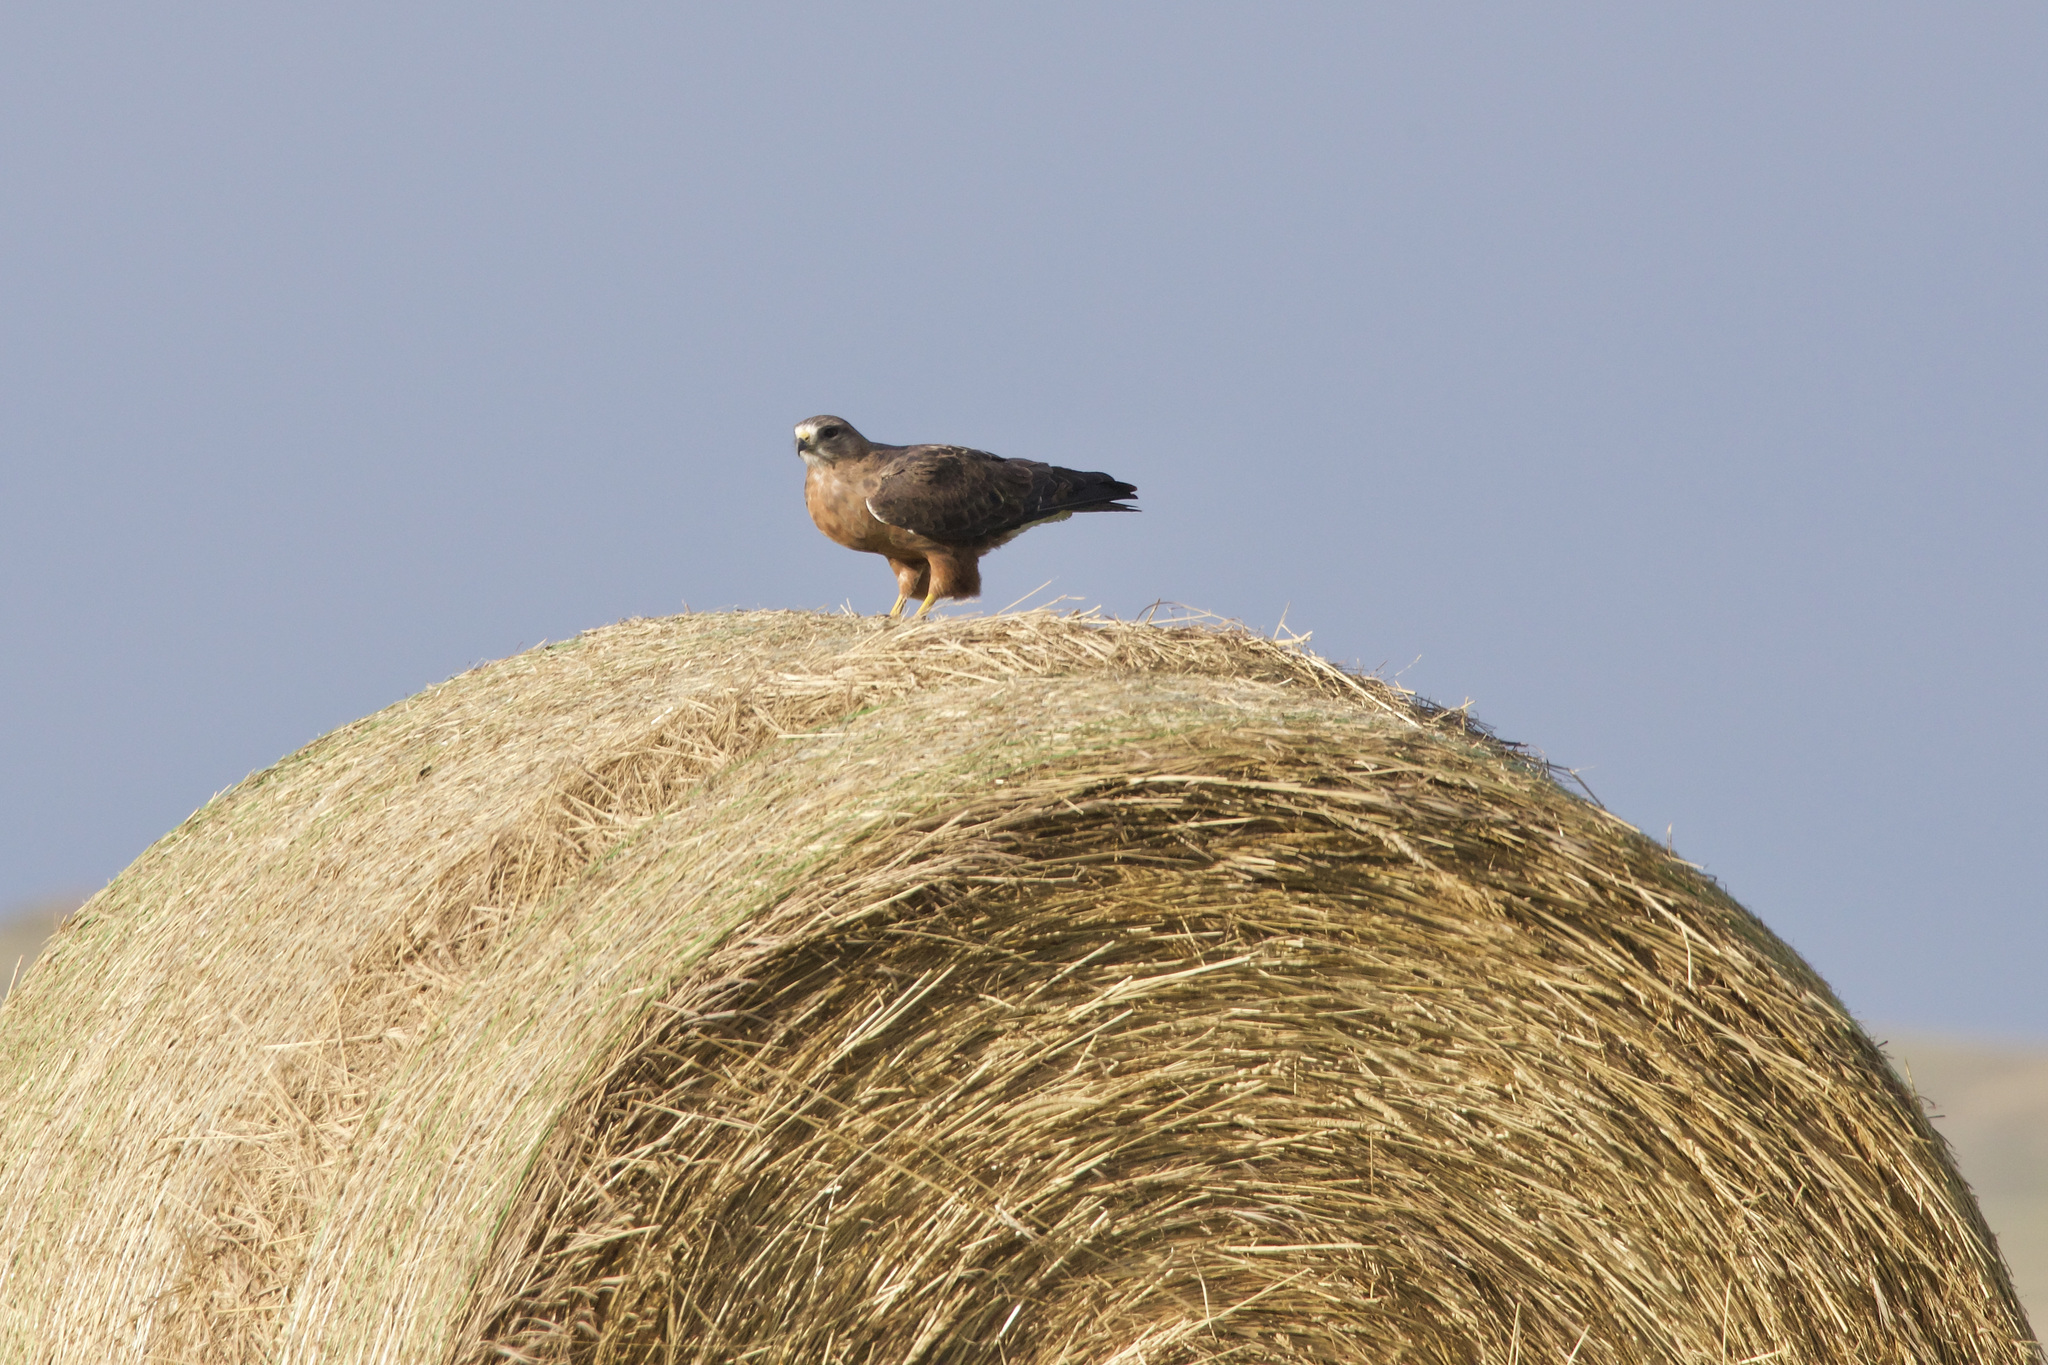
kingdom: Animalia
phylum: Chordata
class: Aves
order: Accipitriformes
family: Accipitridae
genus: Buteo
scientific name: Buteo swainsoni
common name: Swainson's hawk
